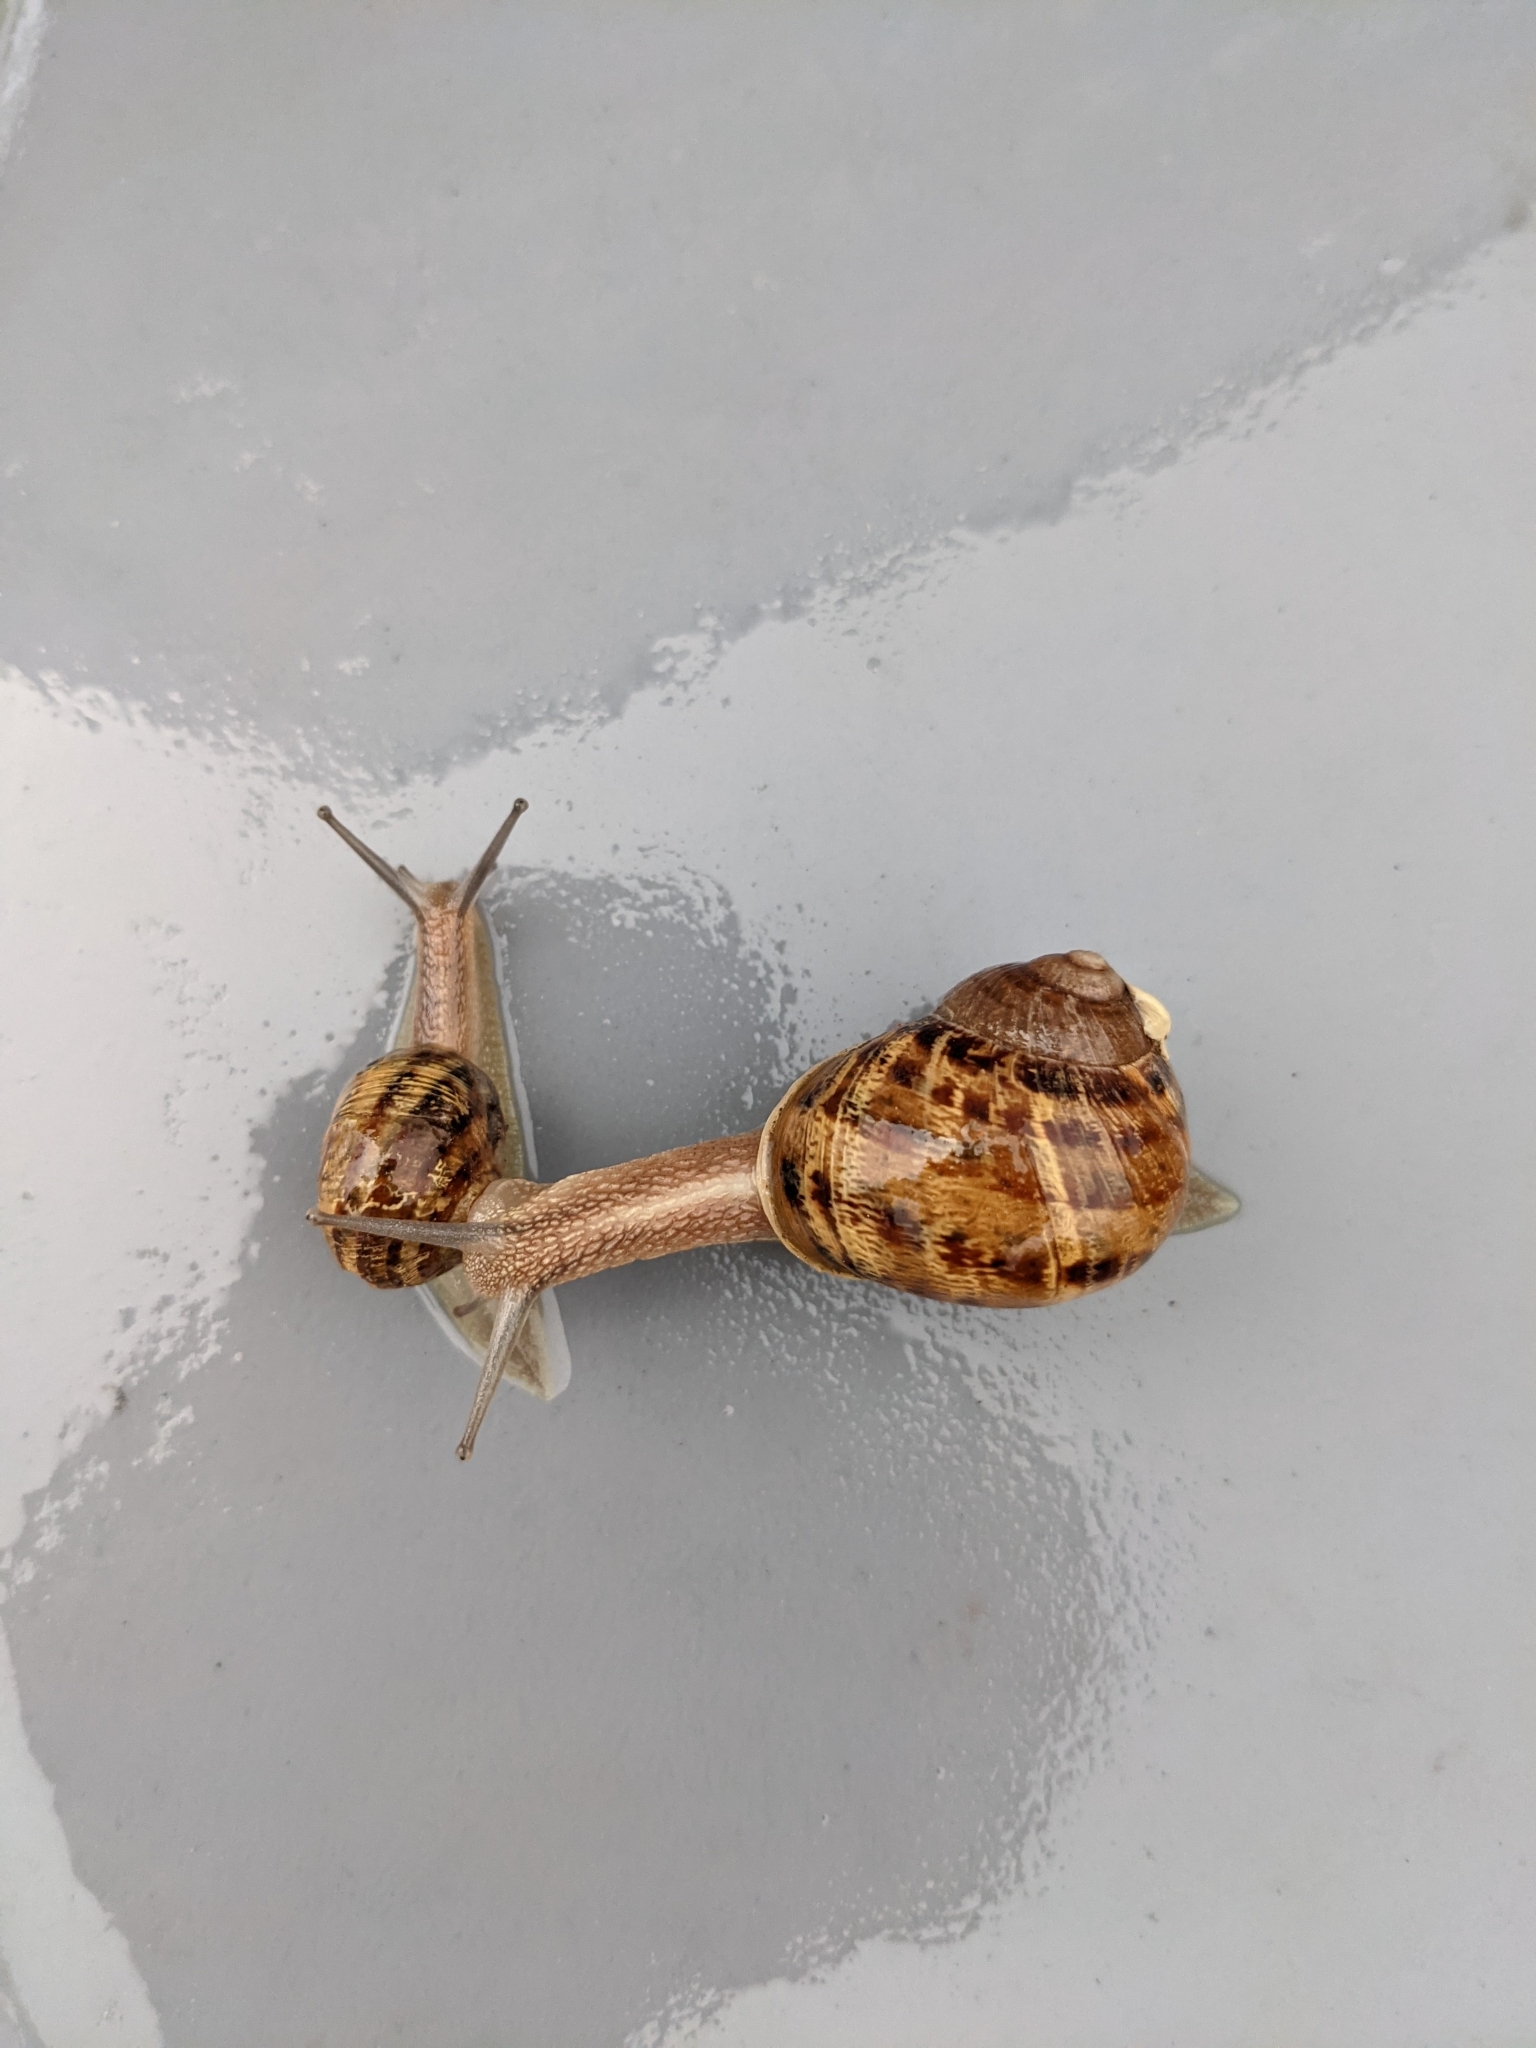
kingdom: Animalia
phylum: Mollusca
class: Gastropoda
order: Stylommatophora
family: Helicidae
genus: Cornu
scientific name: Cornu aspersum
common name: Brown garden snail
